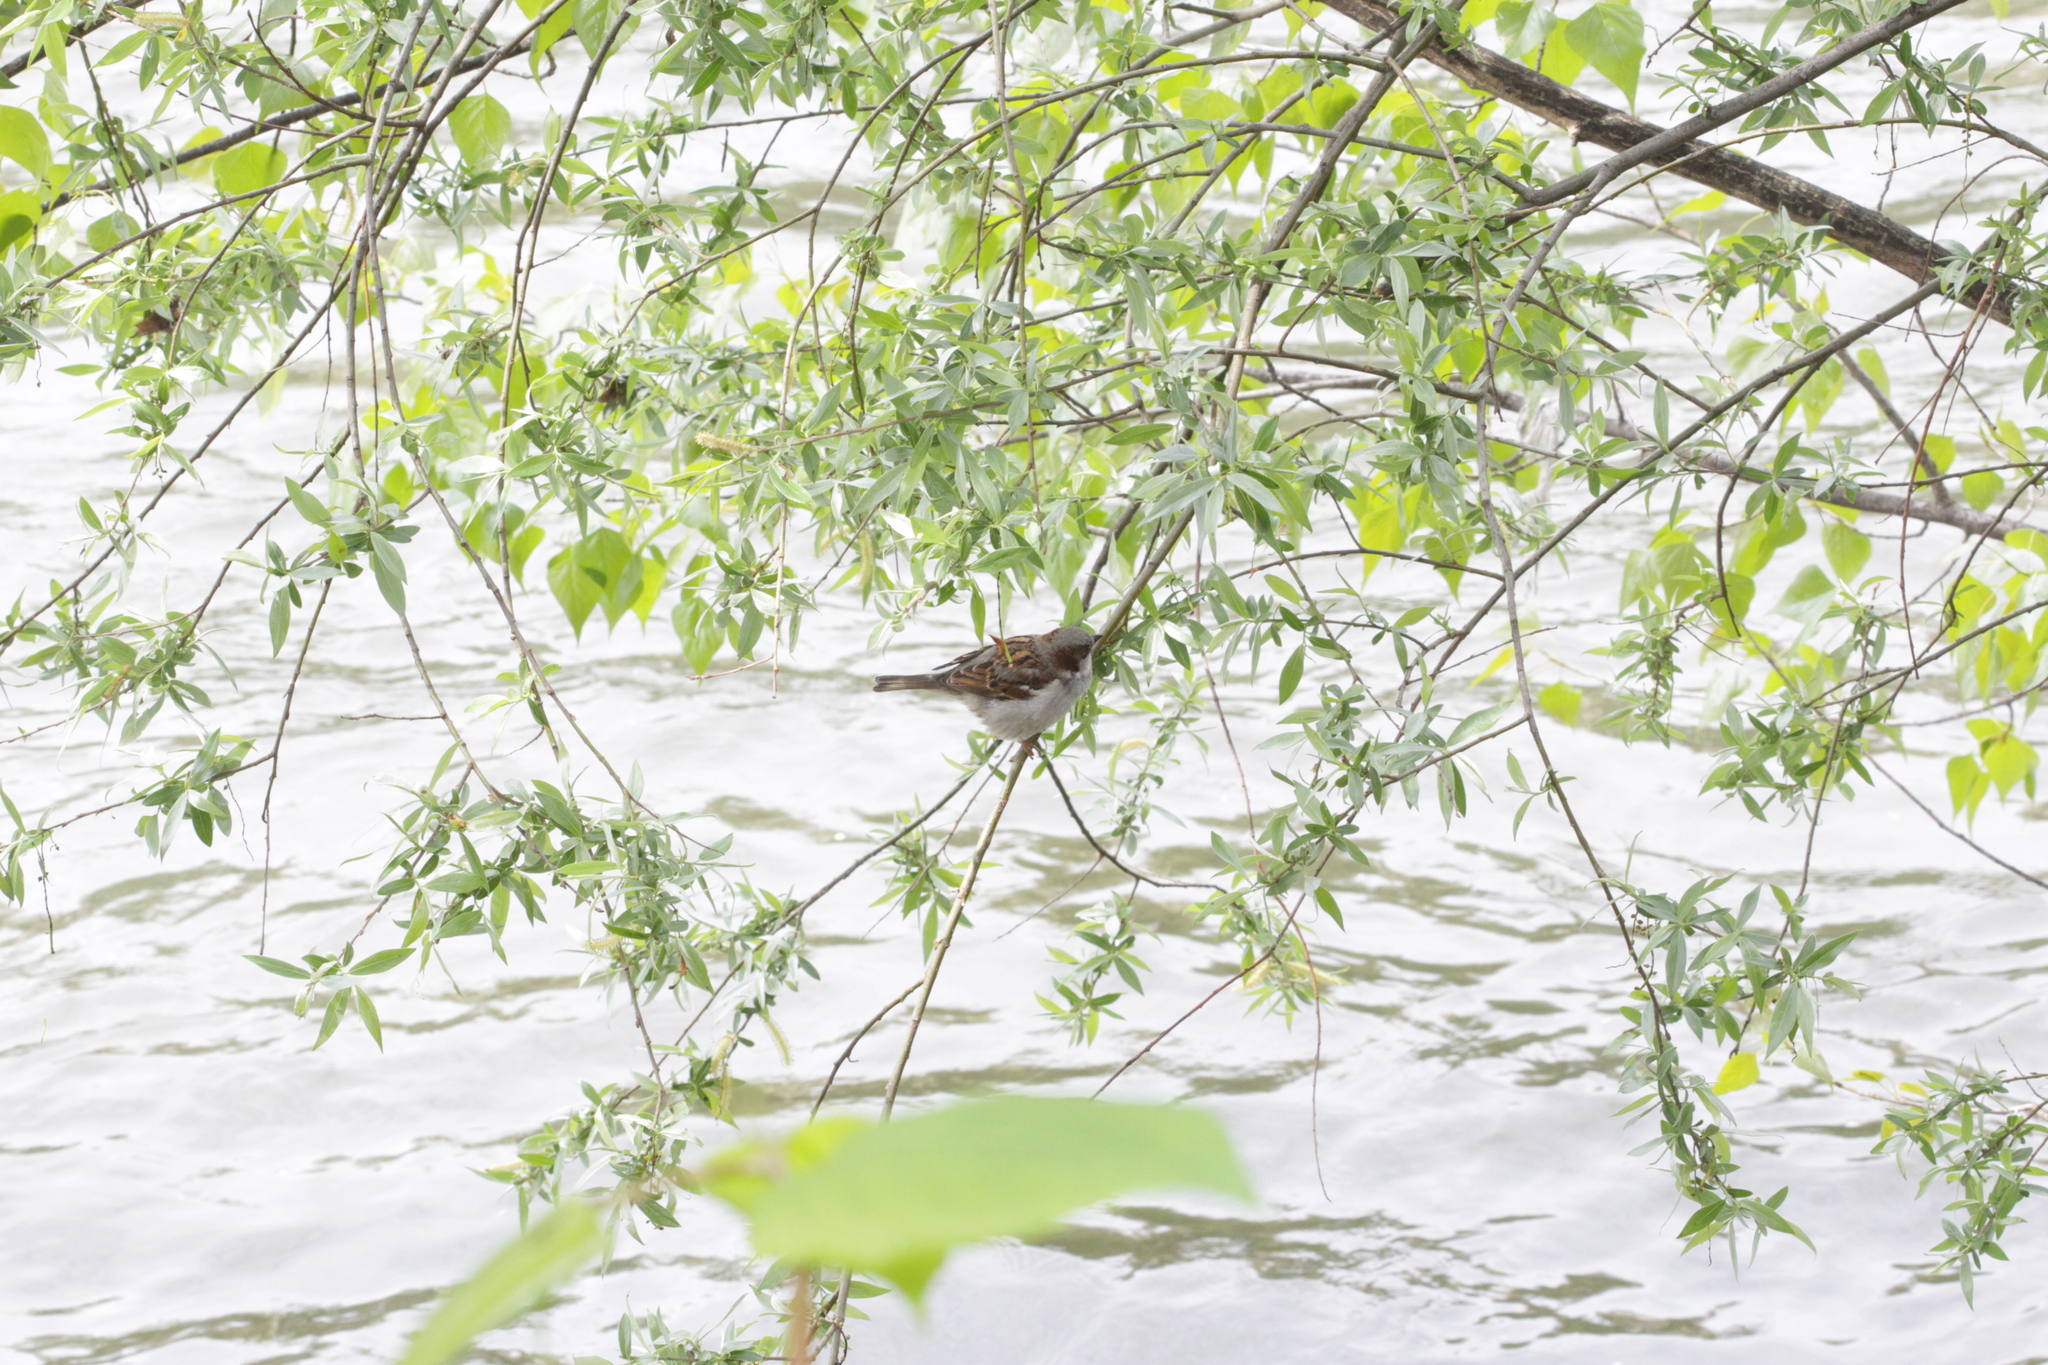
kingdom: Animalia
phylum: Chordata
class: Aves
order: Passeriformes
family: Passeridae
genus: Passer
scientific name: Passer domesticus
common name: House sparrow
